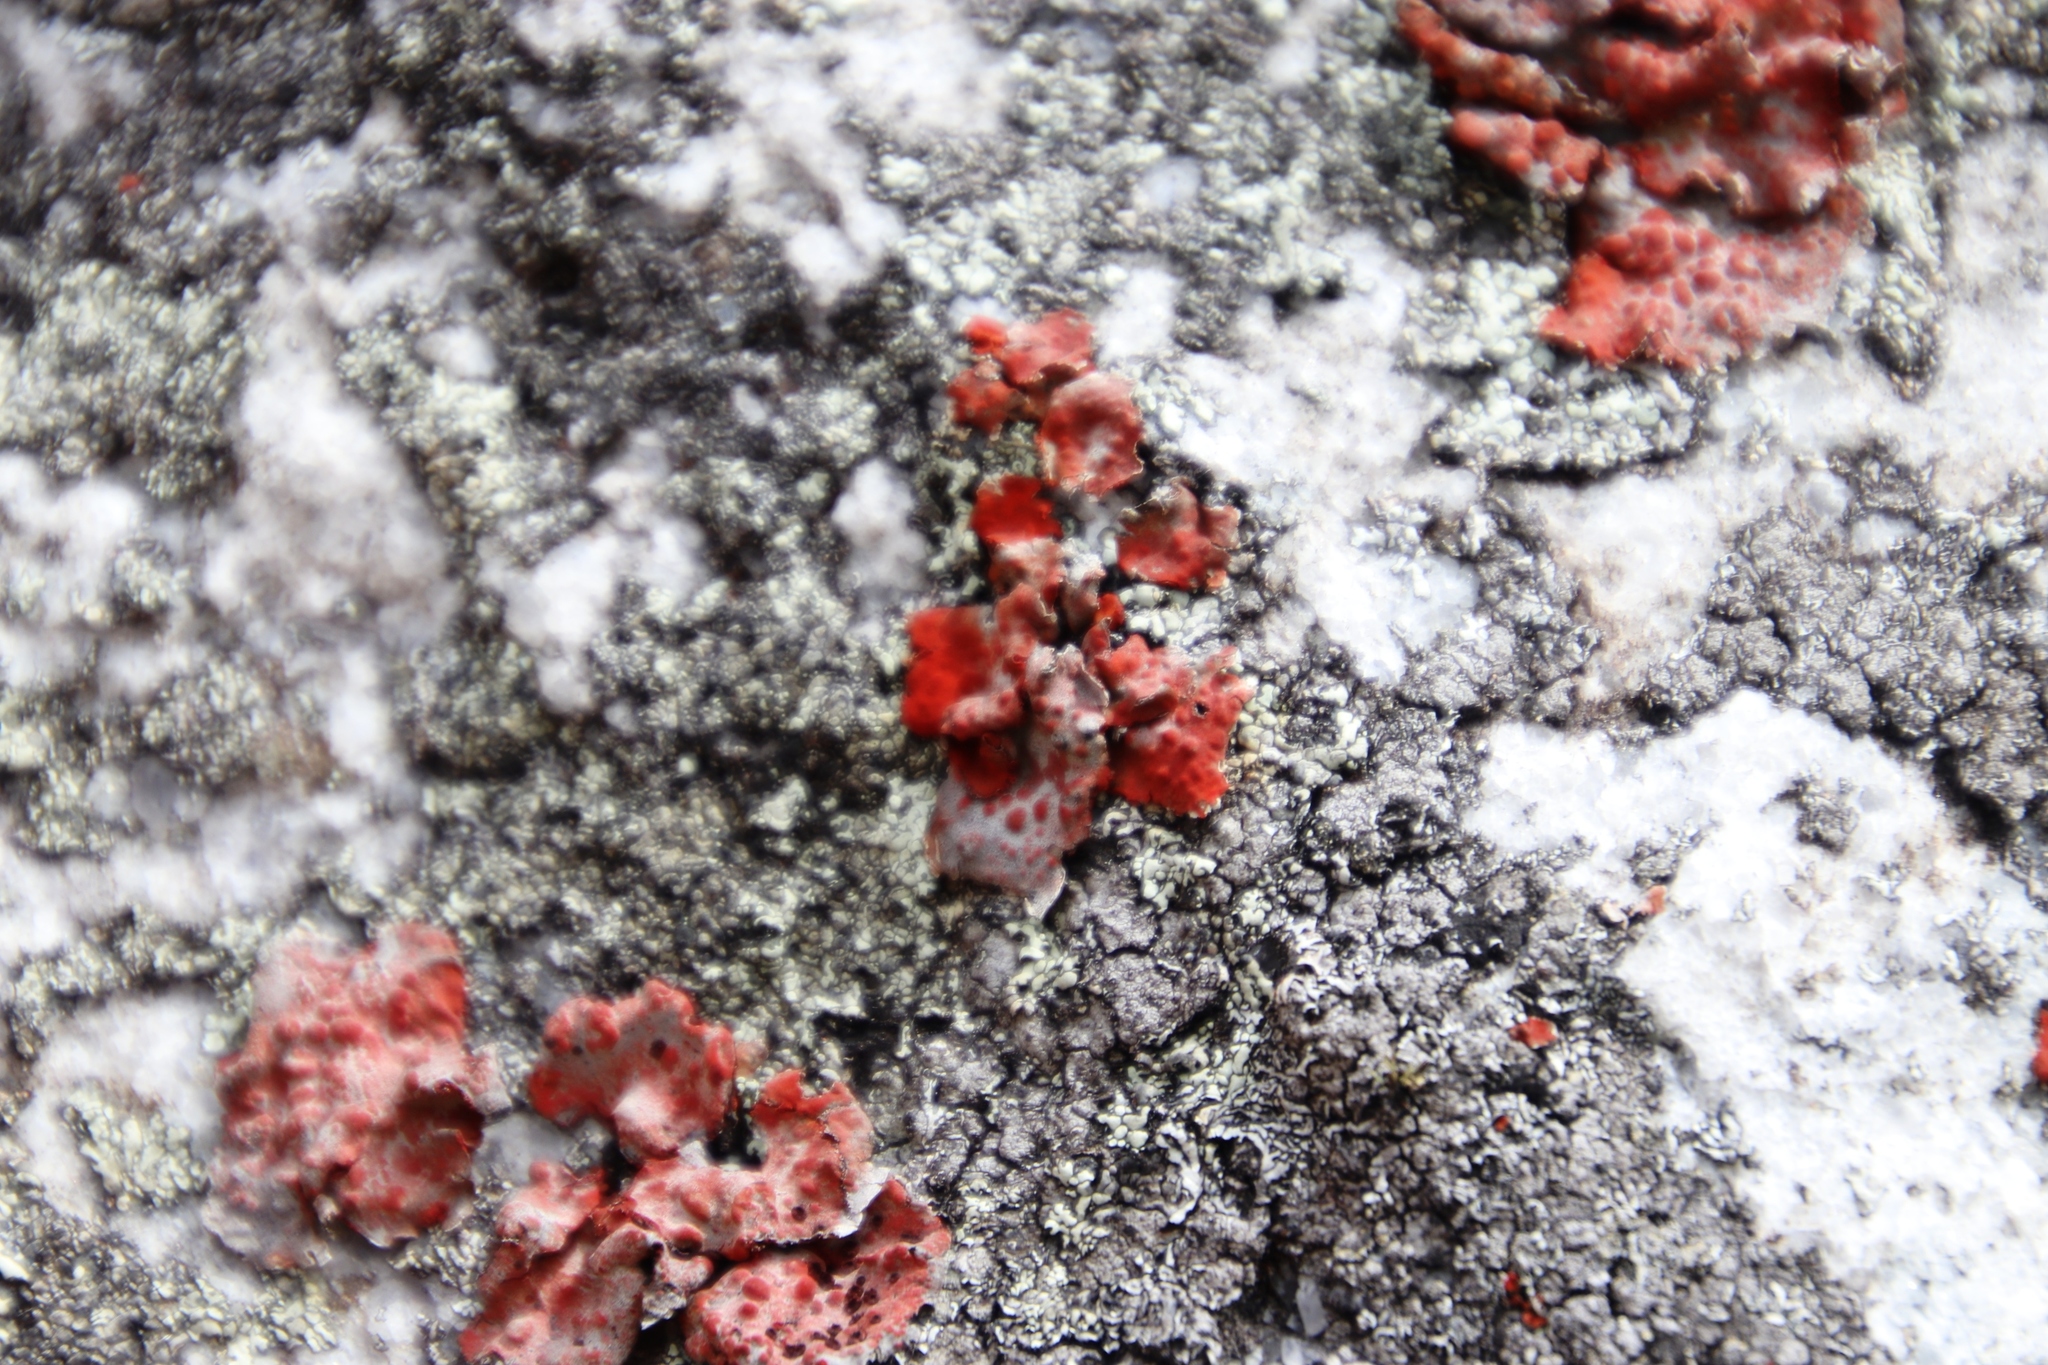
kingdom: Fungi
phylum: Ascomycota
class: Lecanoromycetes
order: Umbilicariales
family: Umbilicariaceae
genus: Lasallia
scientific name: Lasallia rubiginosa
